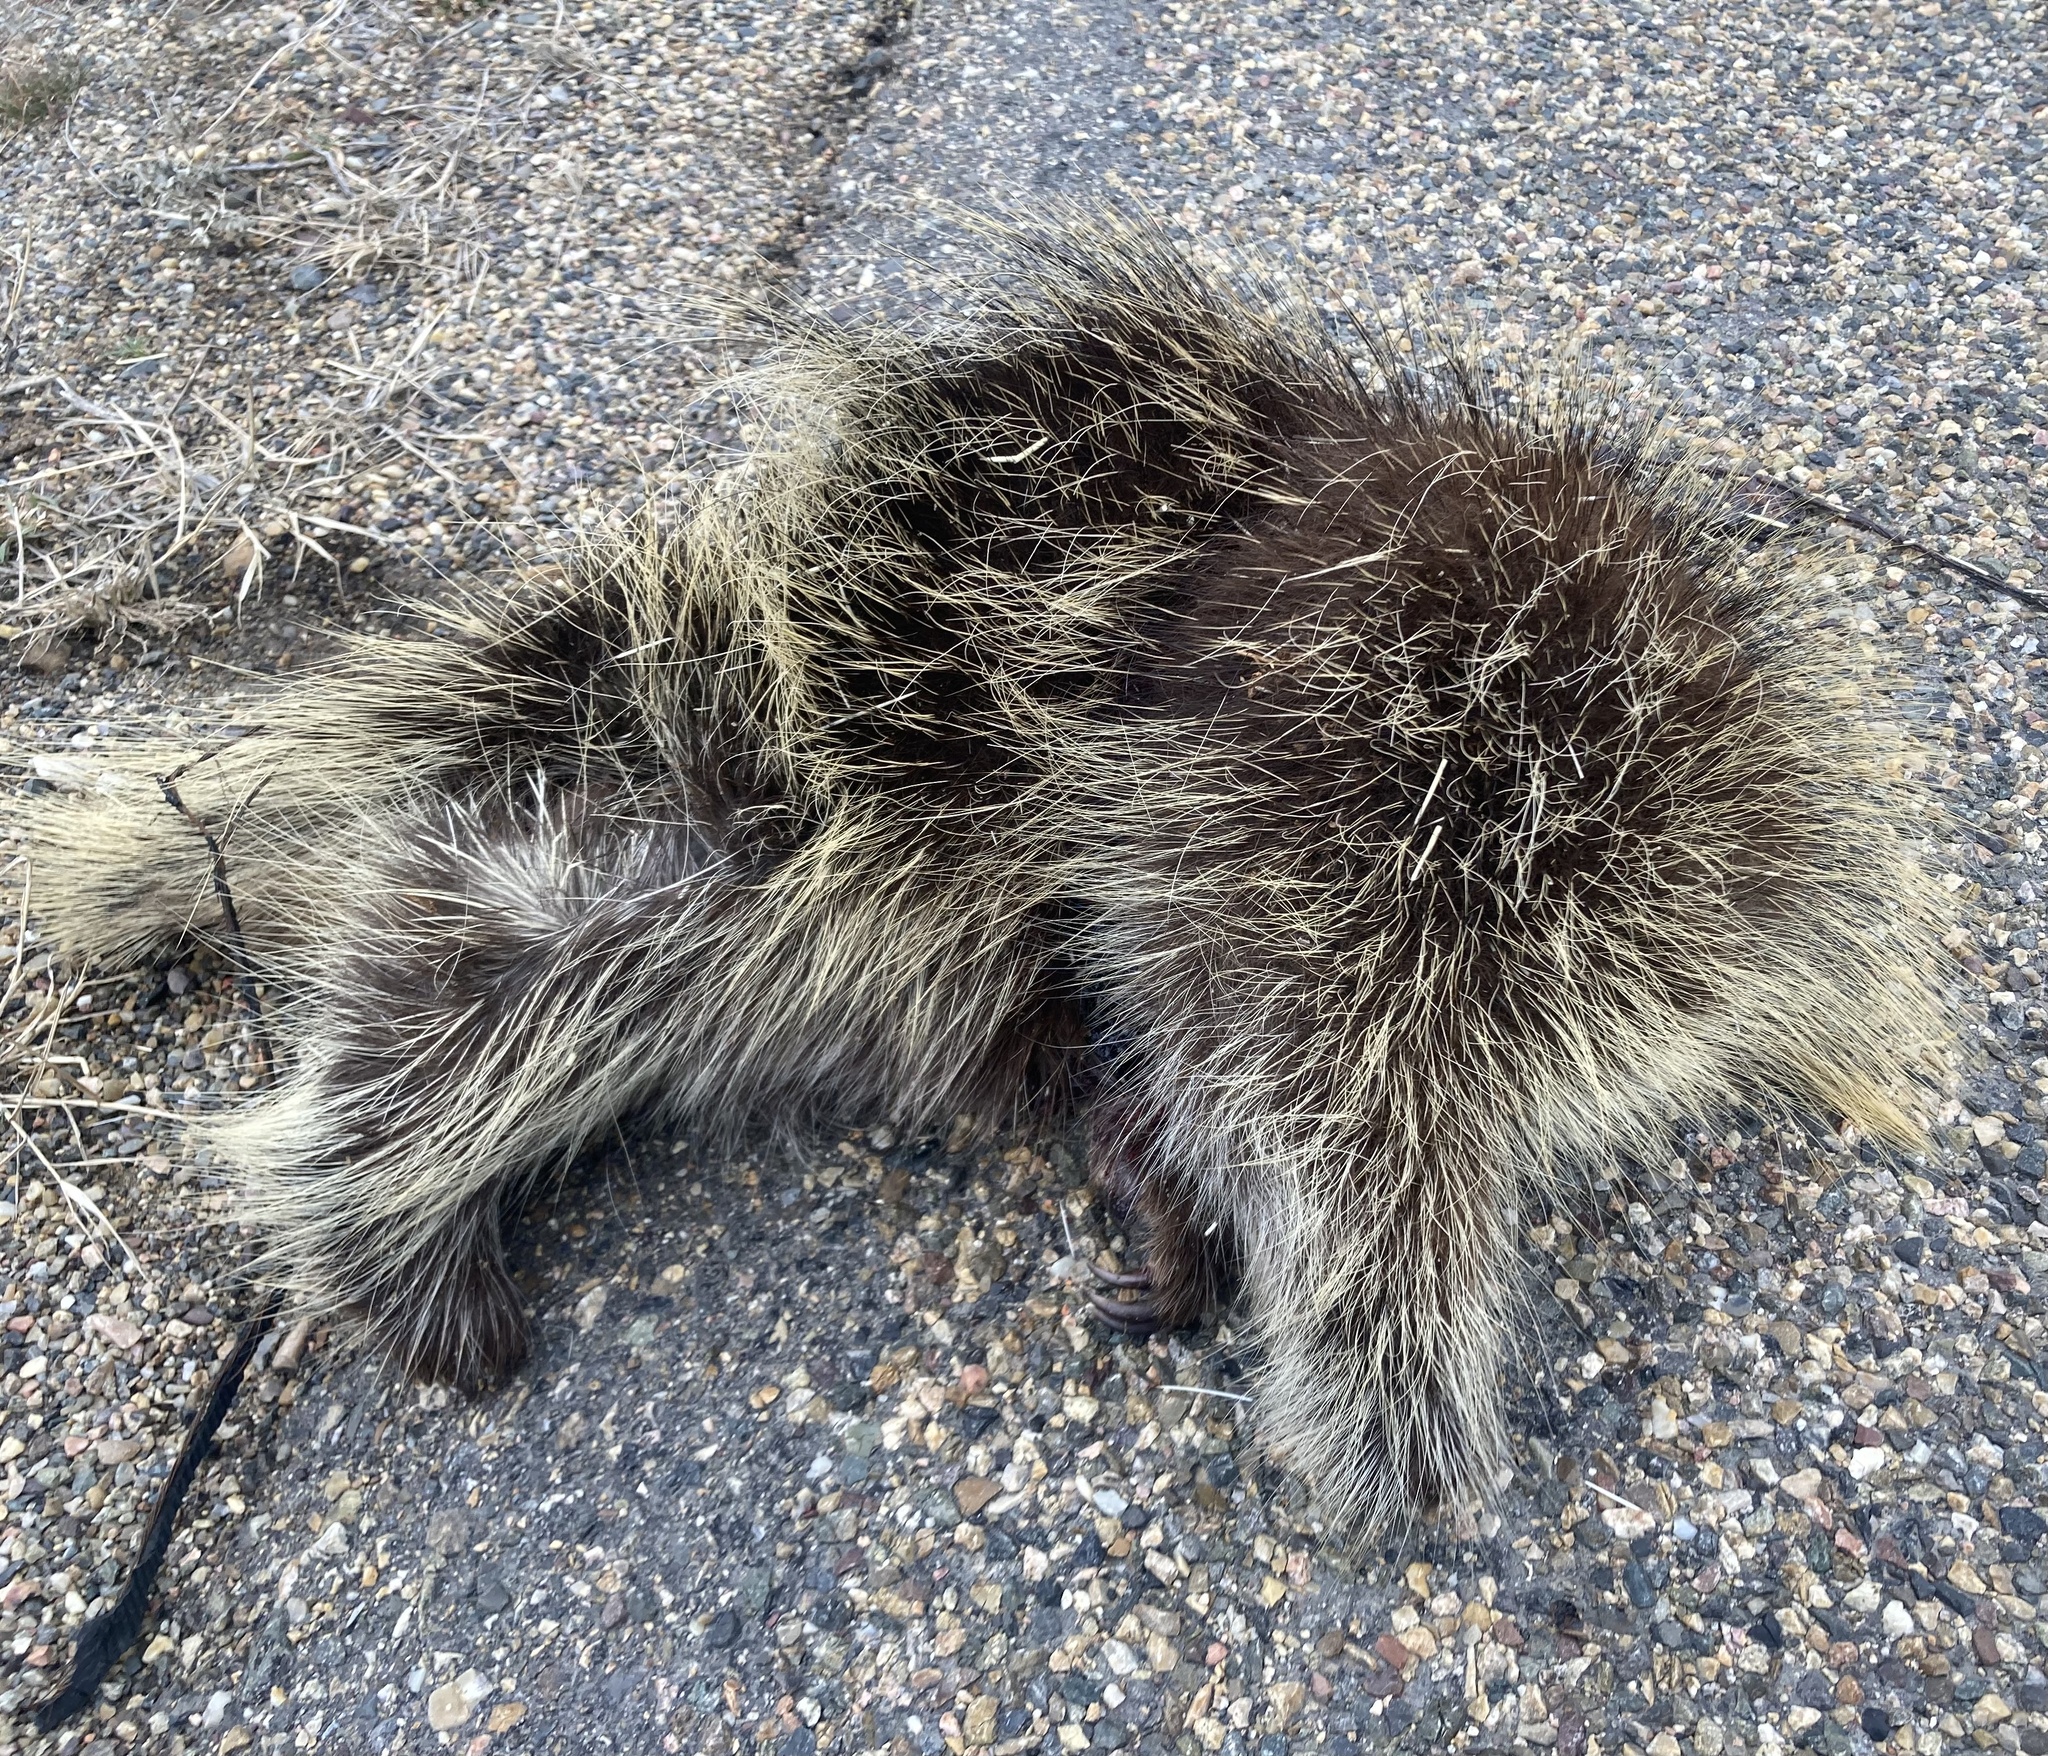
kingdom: Animalia
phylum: Chordata
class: Mammalia
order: Rodentia
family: Erethizontidae
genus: Erethizon
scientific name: Erethizon dorsatus
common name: North american porcupine
